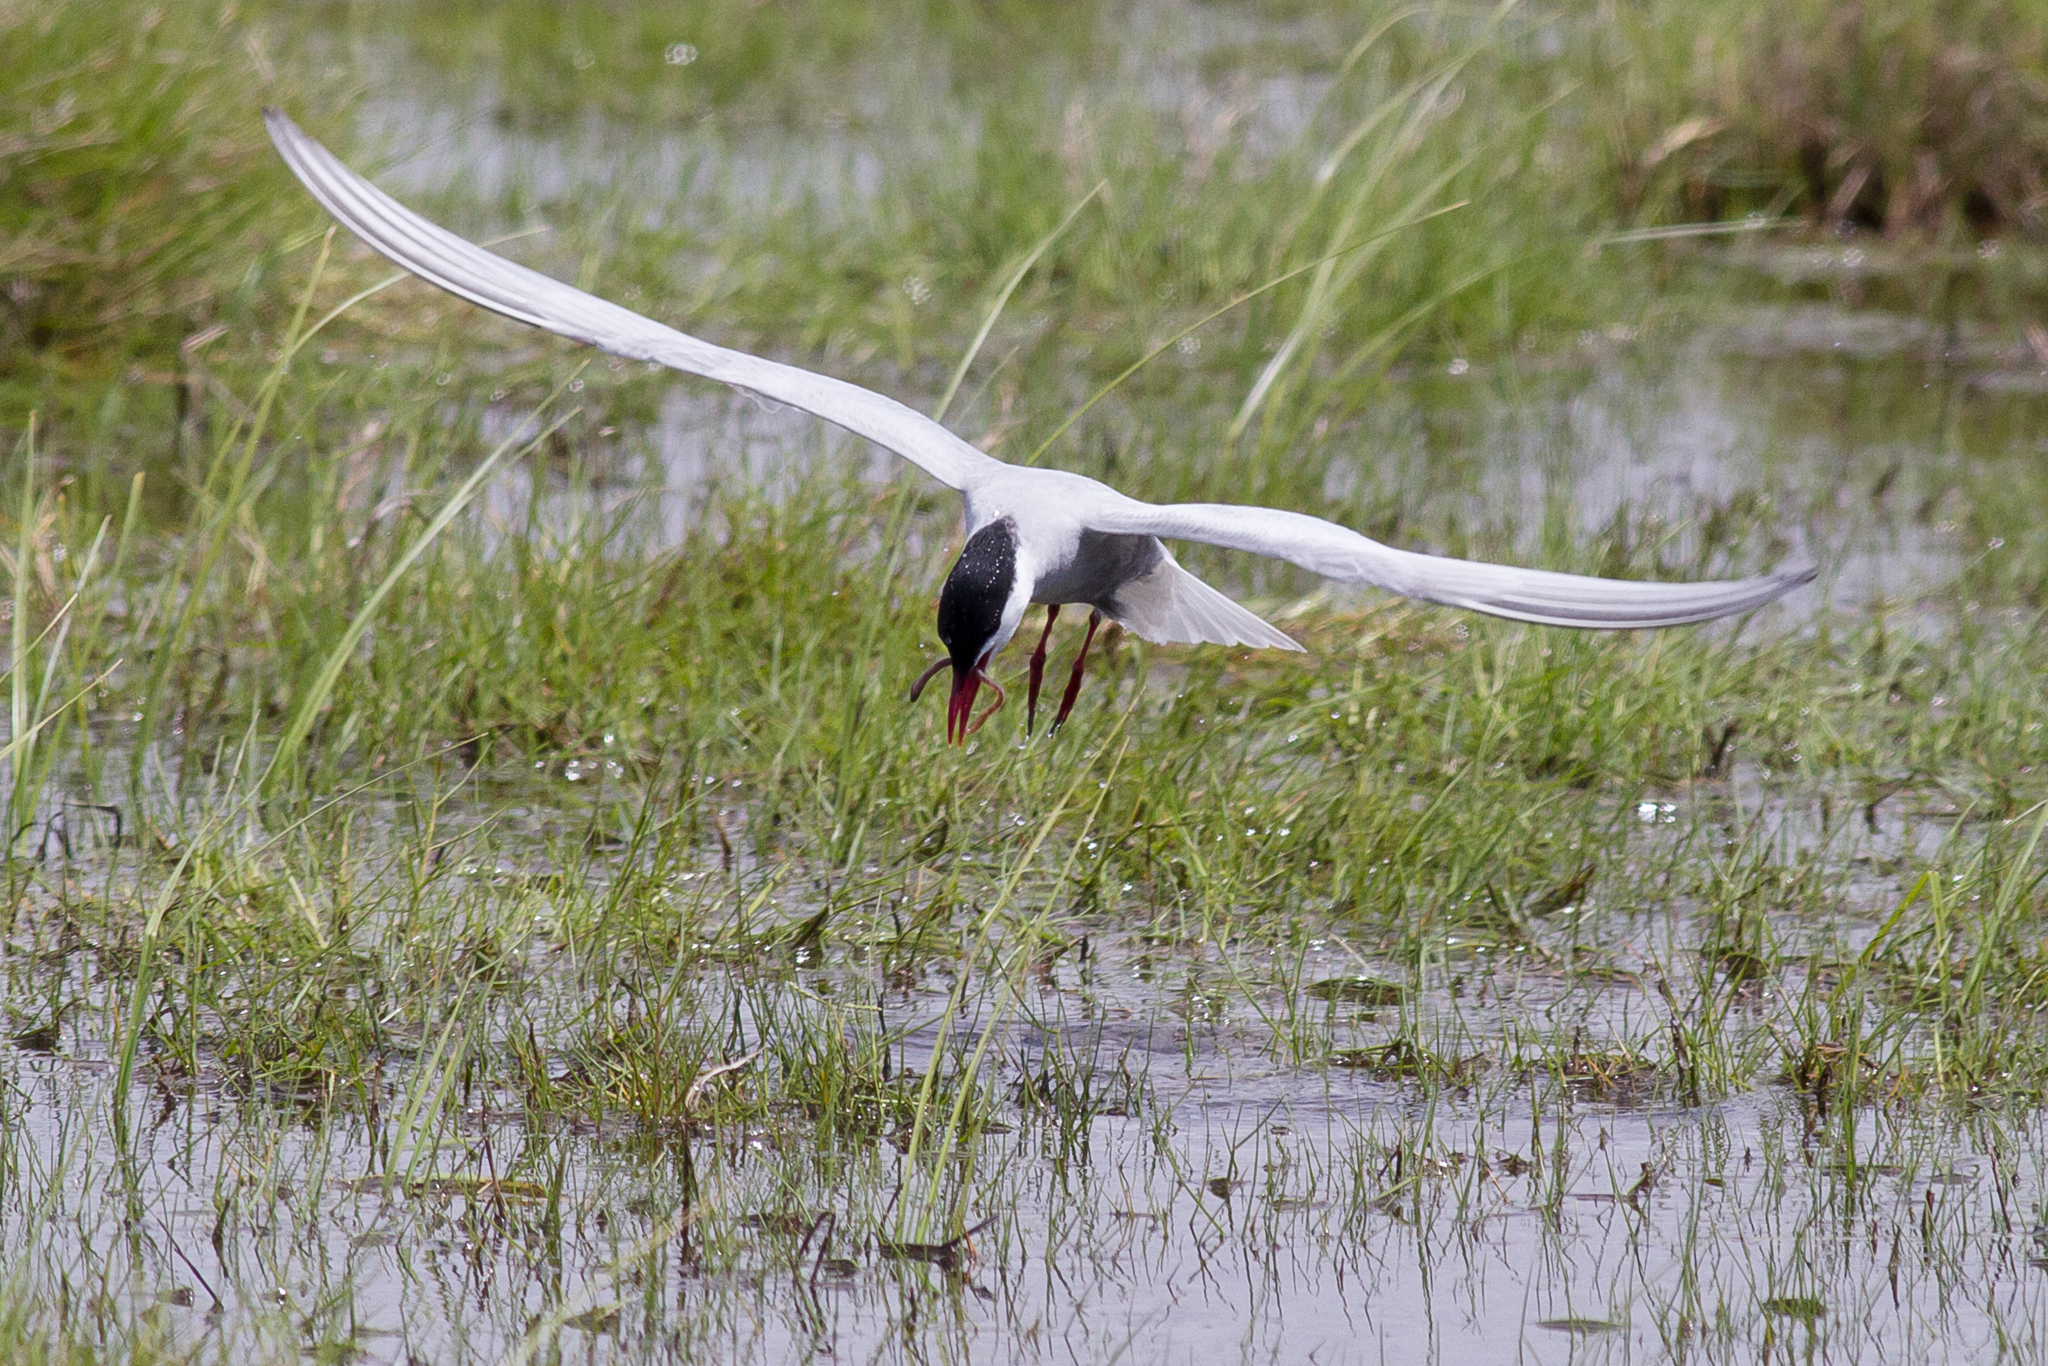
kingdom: Animalia
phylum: Chordata
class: Aves
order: Charadriiformes
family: Laridae
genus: Chlidonias
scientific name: Chlidonias hybrida
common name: Whiskered tern
